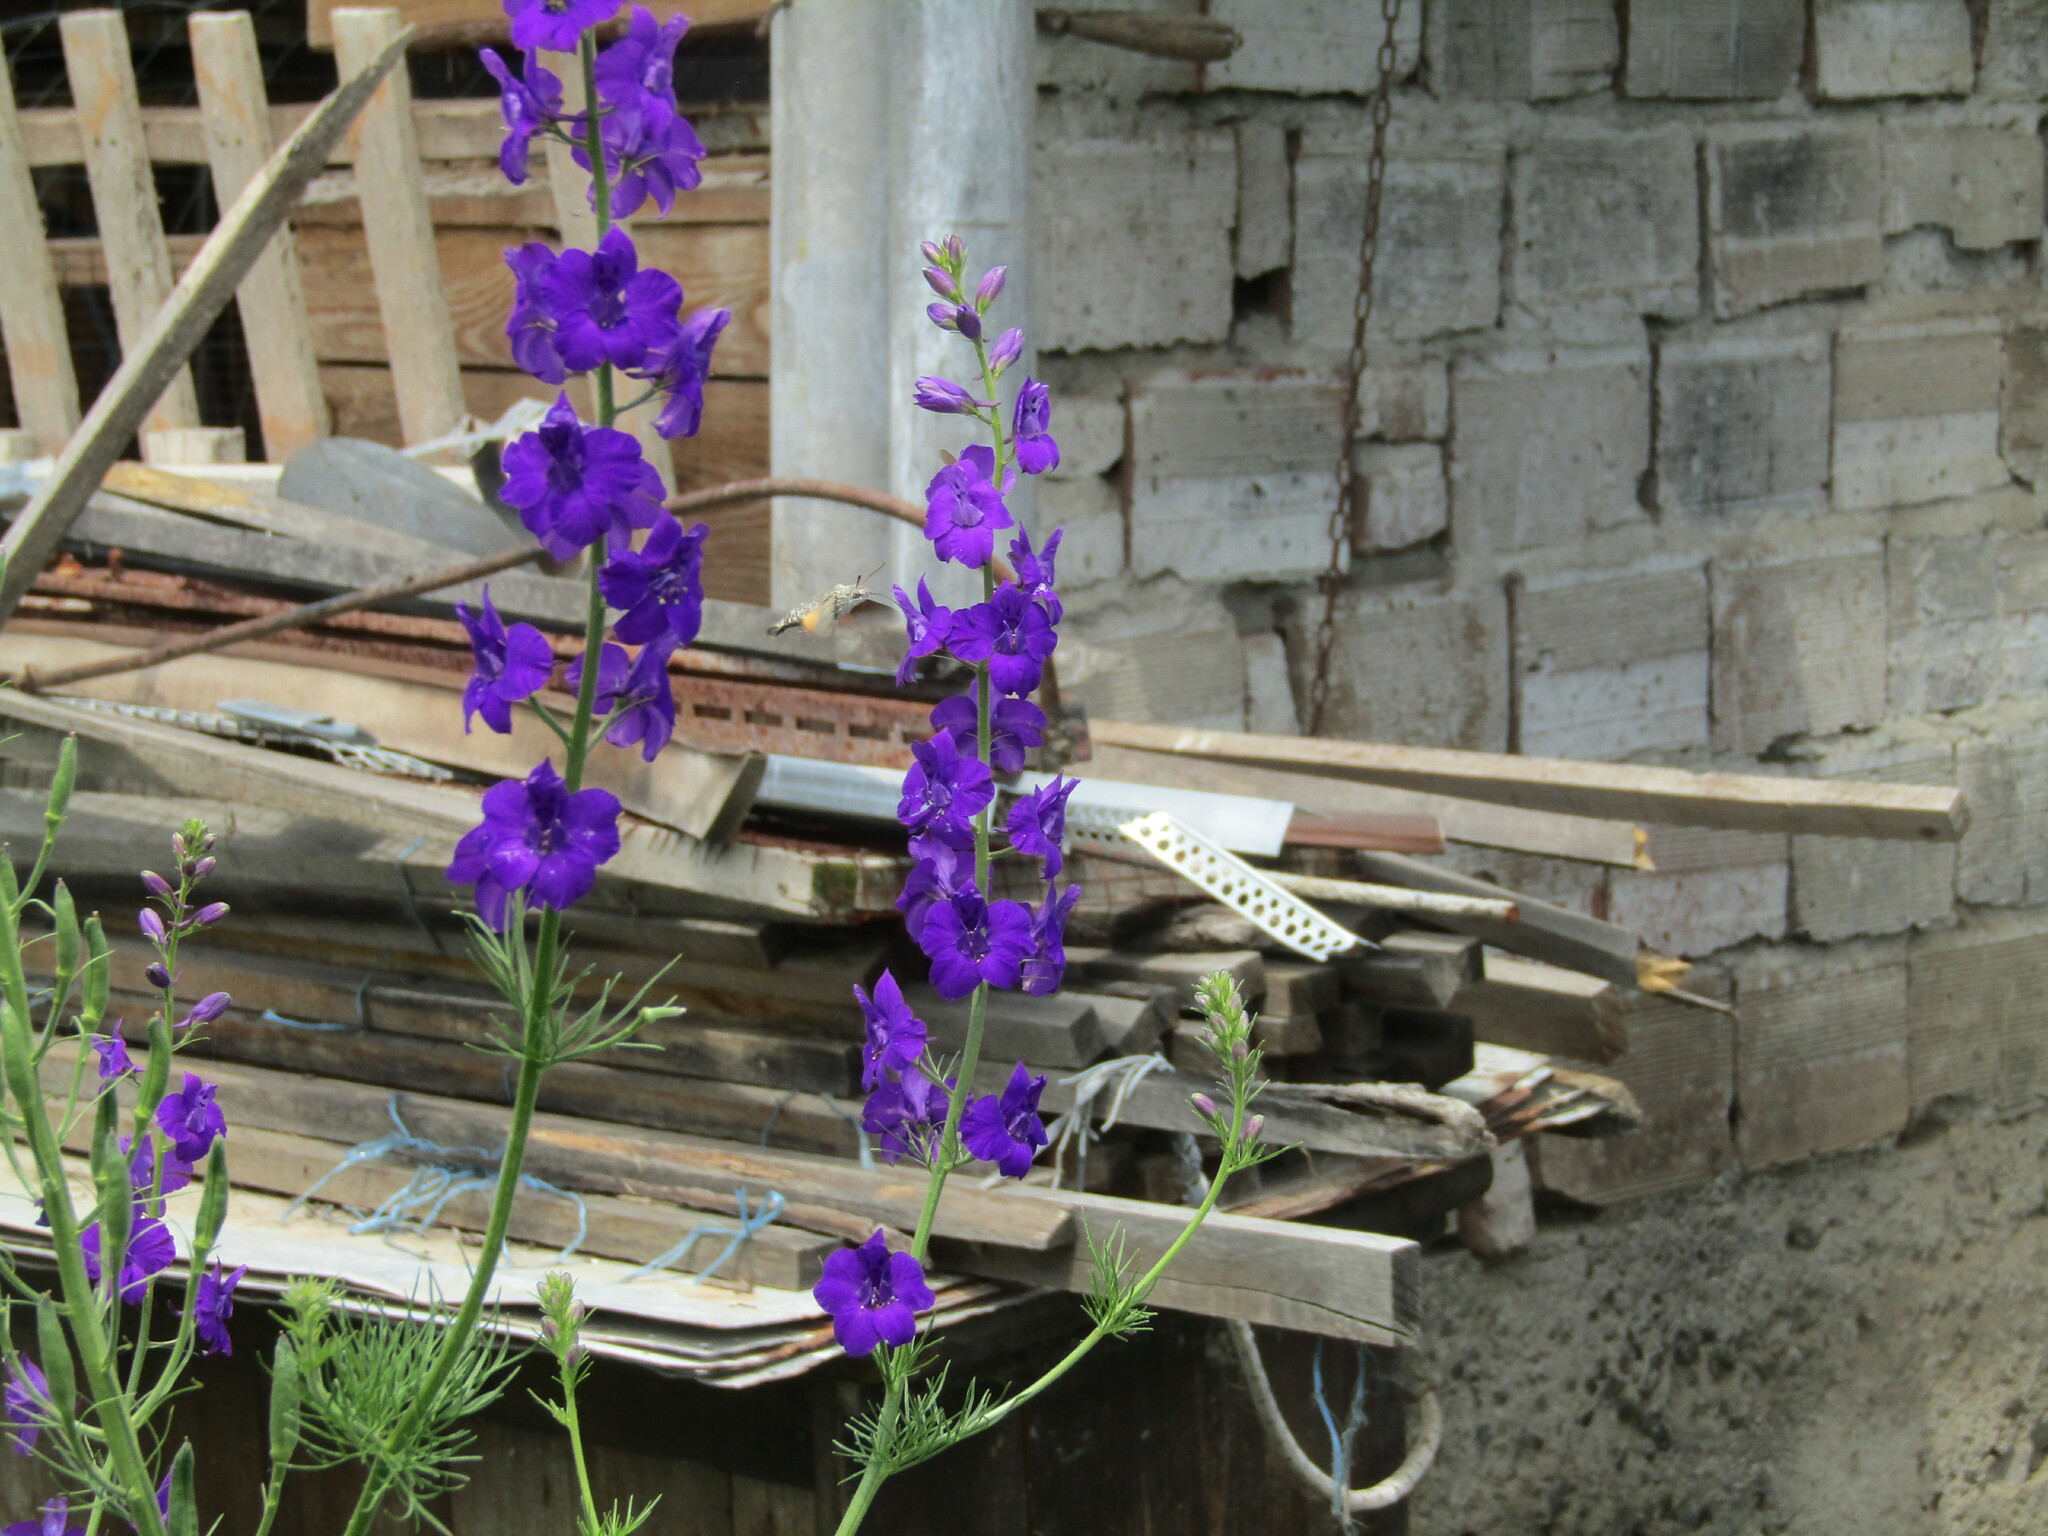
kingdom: Animalia
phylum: Arthropoda
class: Insecta
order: Lepidoptera
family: Sphingidae
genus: Macroglossum
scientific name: Macroglossum stellatarum
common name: Humming-bird hawk-moth
